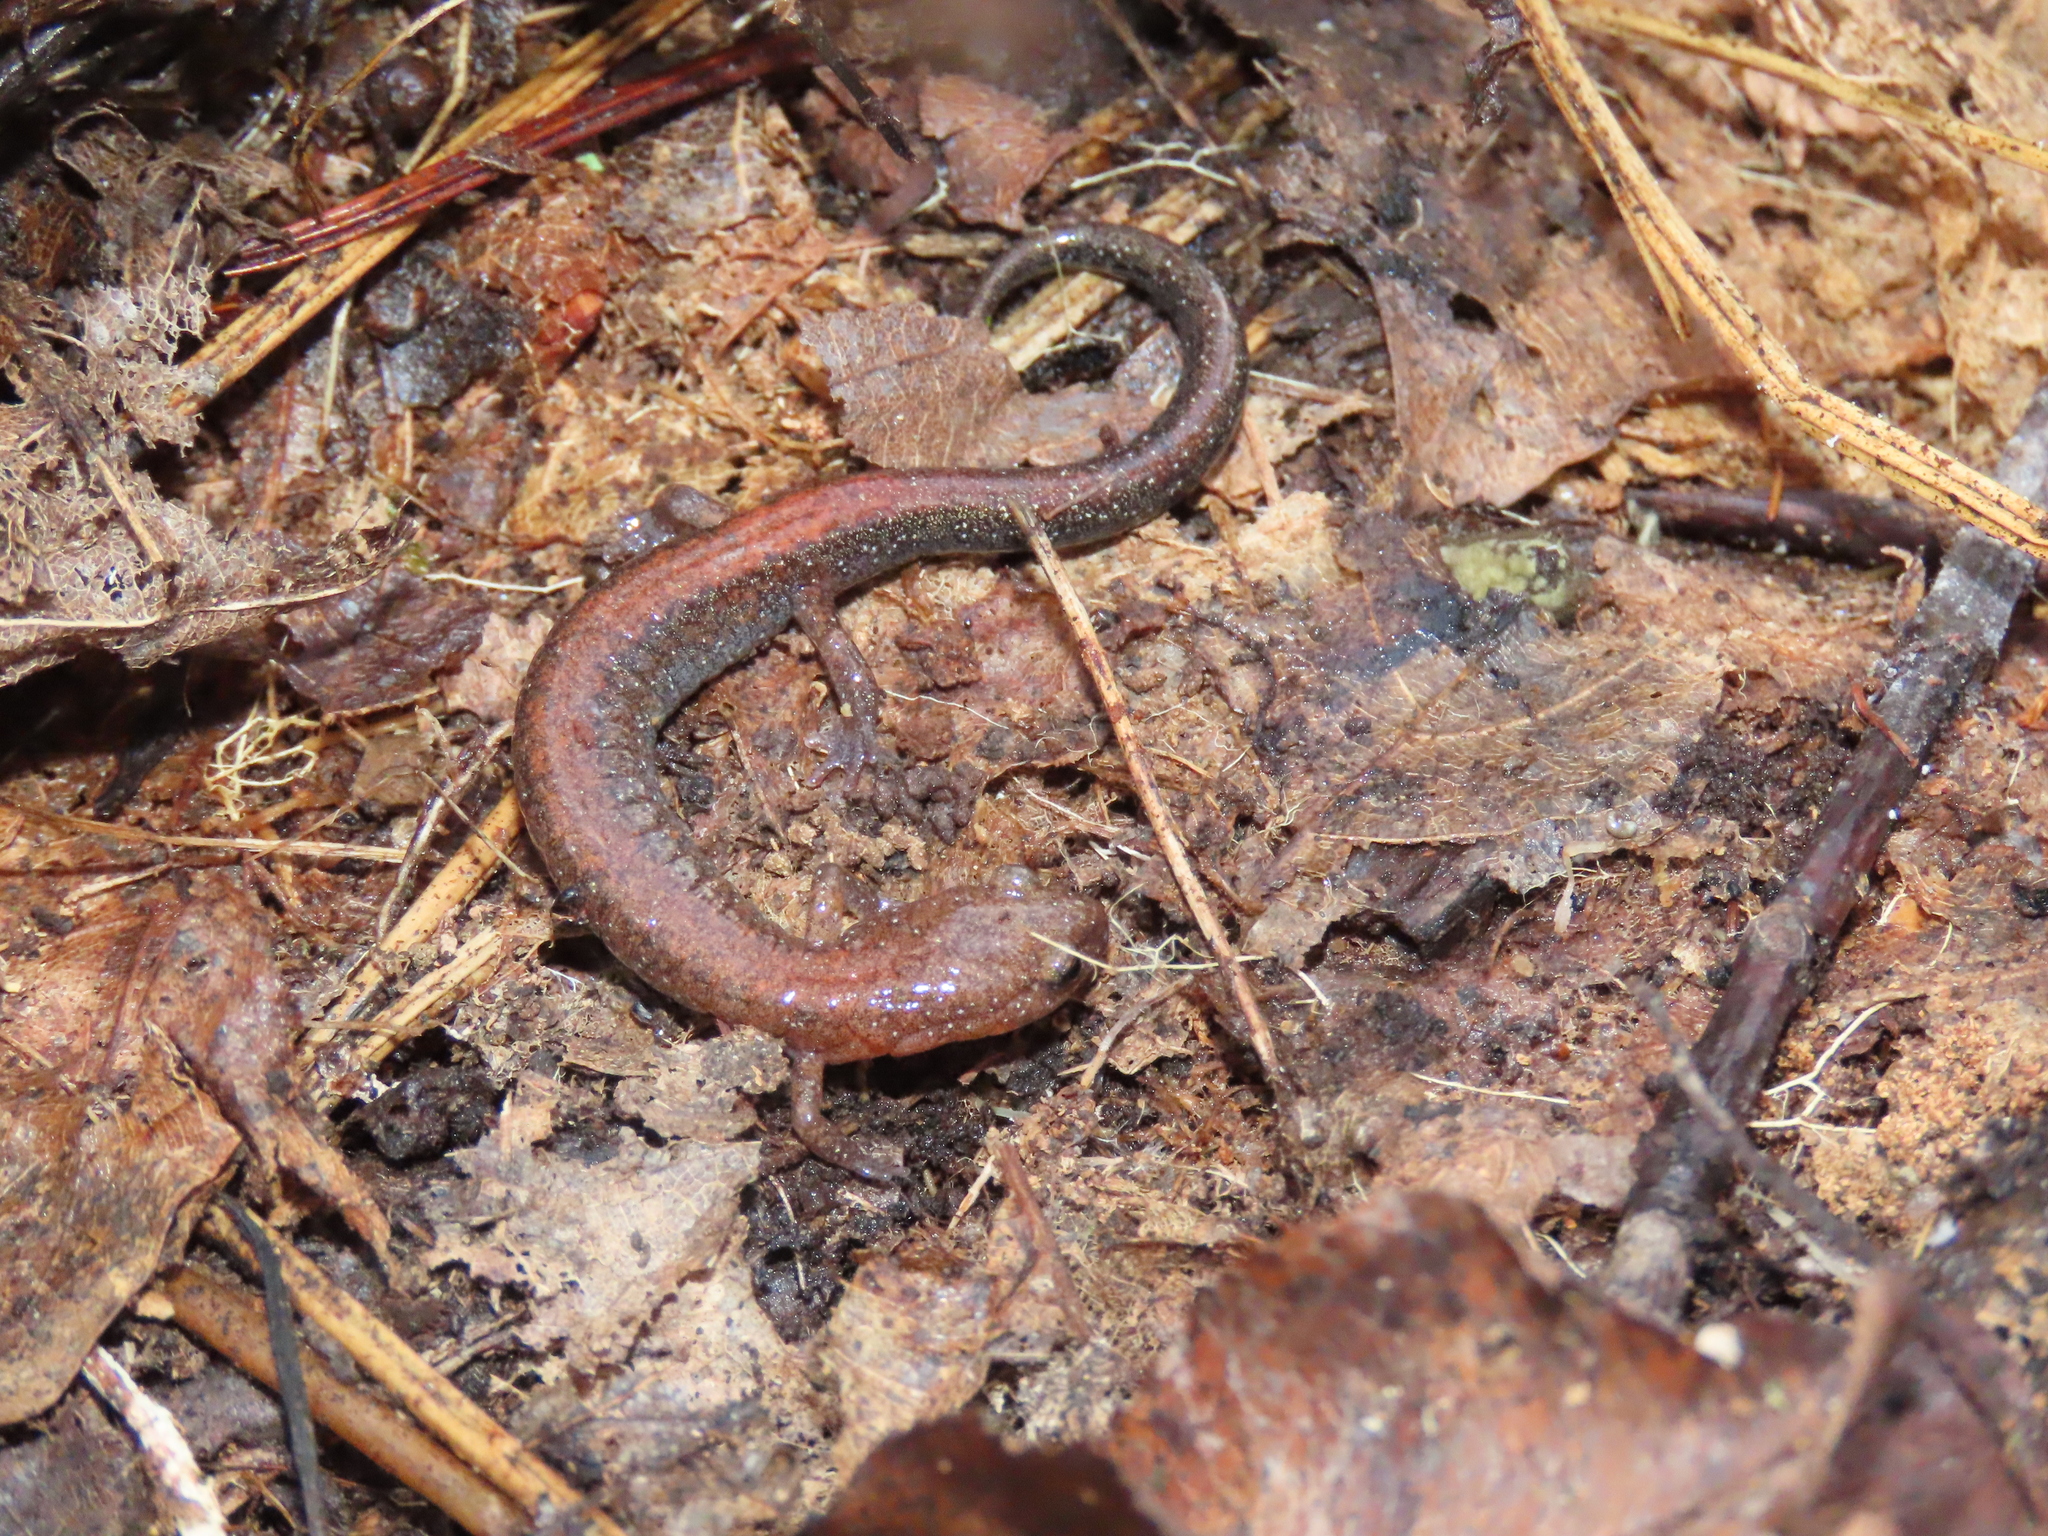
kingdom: Animalia
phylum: Chordata
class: Amphibia
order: Caudata
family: Plethodontidae
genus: Plethodon
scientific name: Plethodon cinereus
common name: Redback salamander
